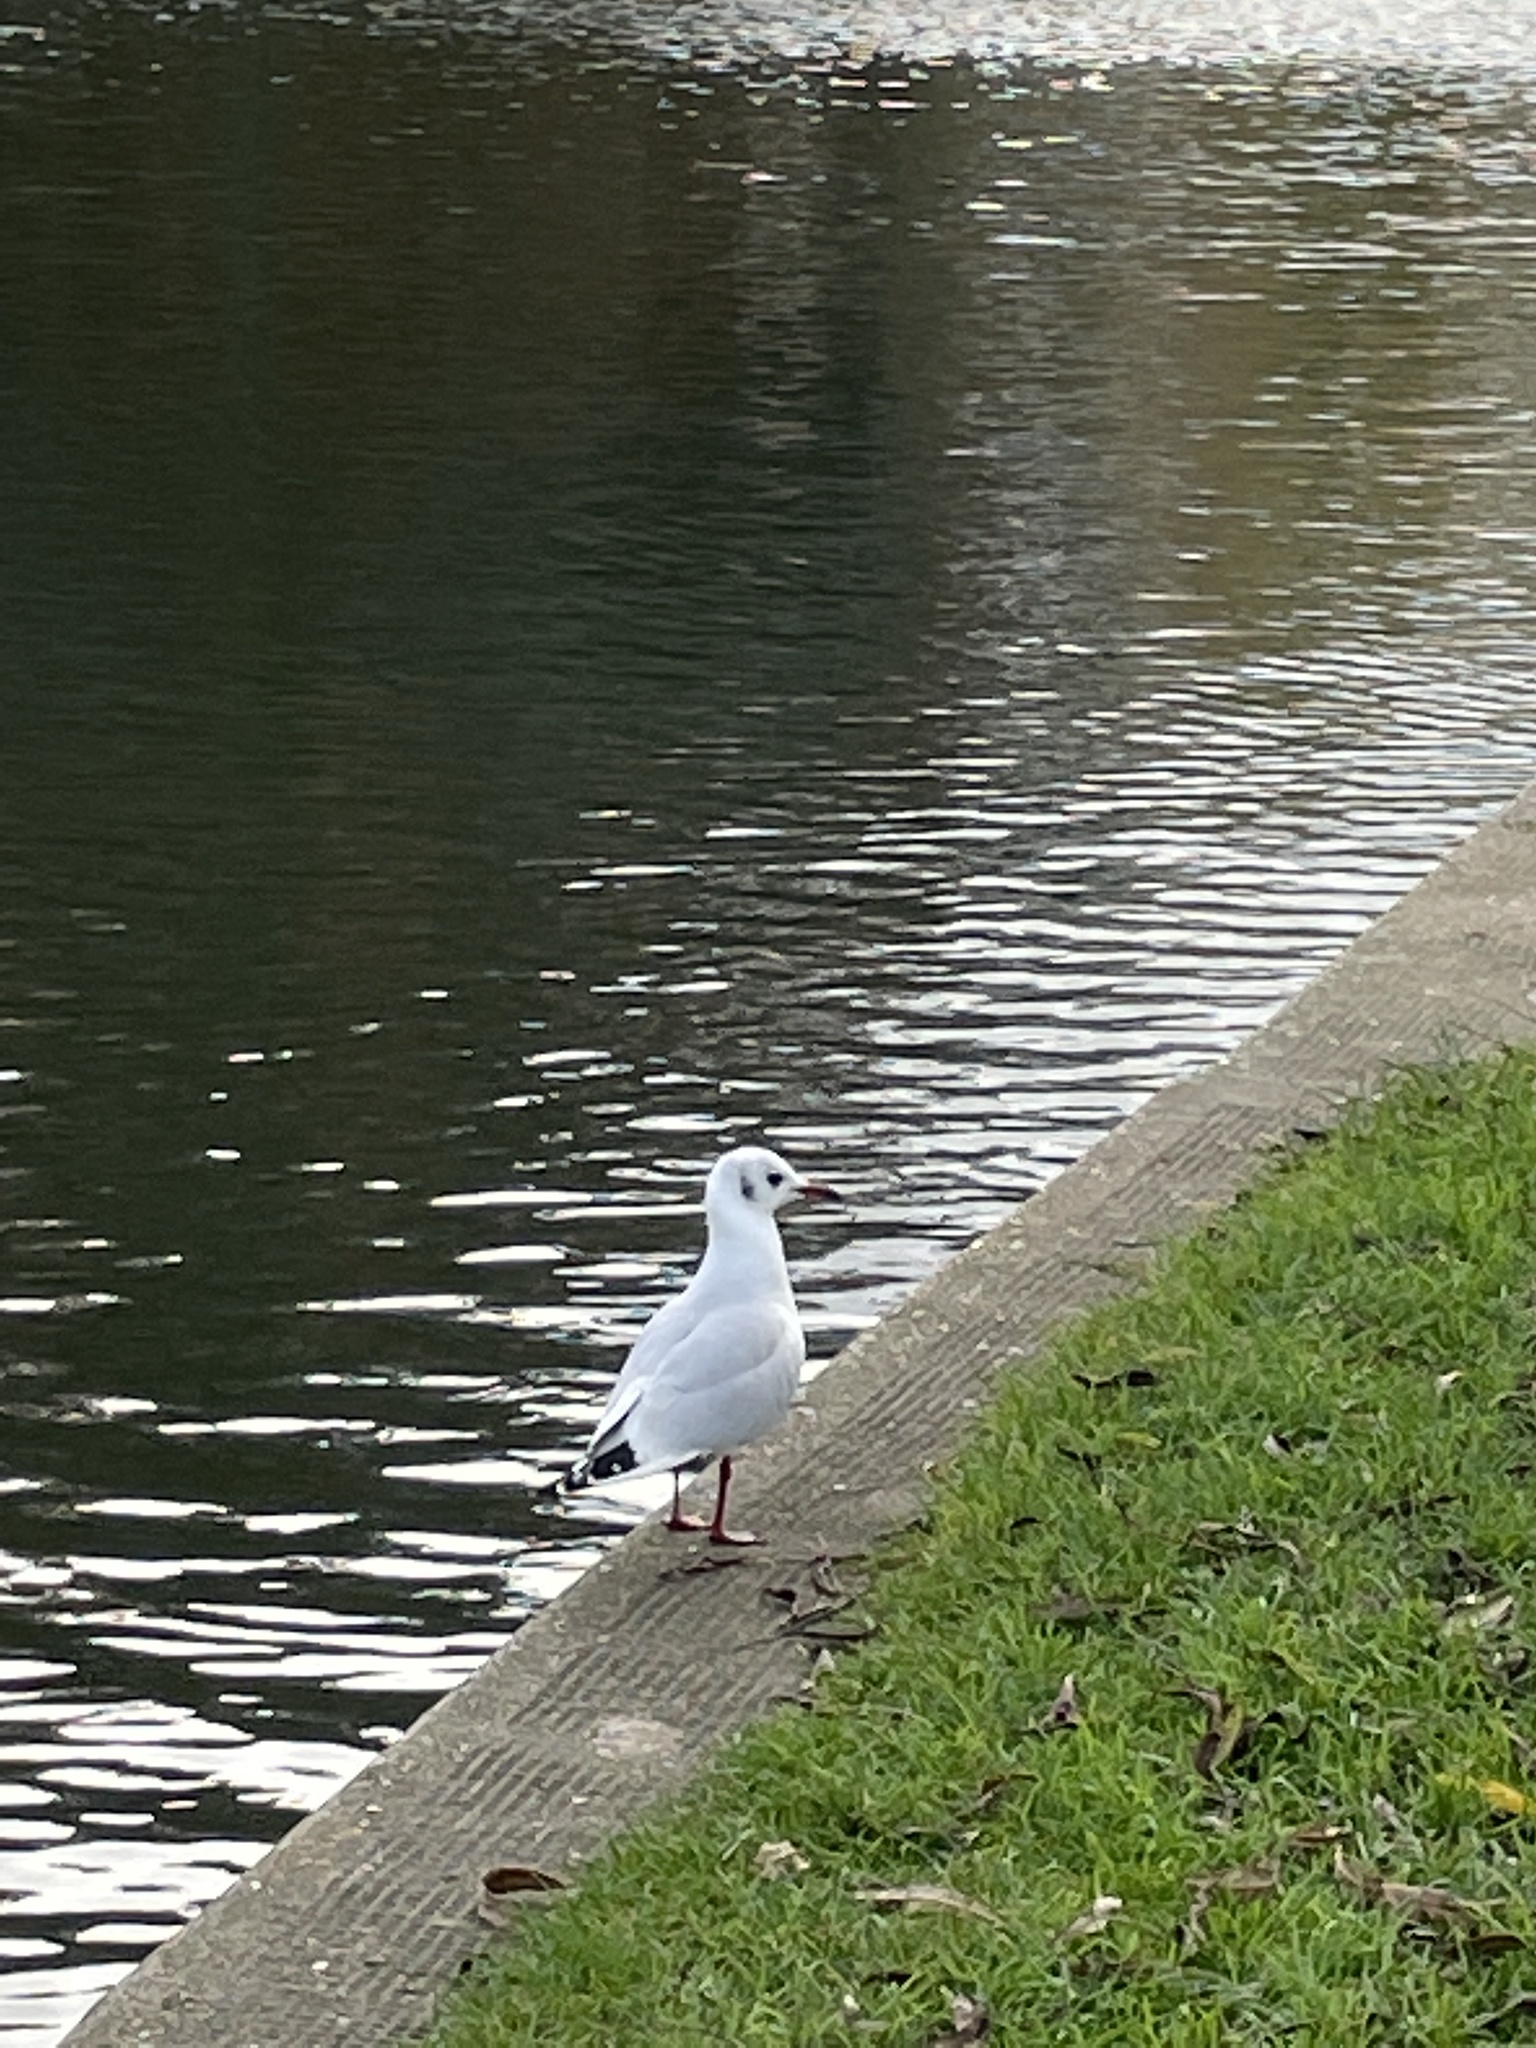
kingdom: Animalia
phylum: Chordata
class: Aves
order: Charadriiformes
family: Laridae
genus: Chroicocephalus
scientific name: Chroicocephalus ridibundus
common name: Black-headed gull
